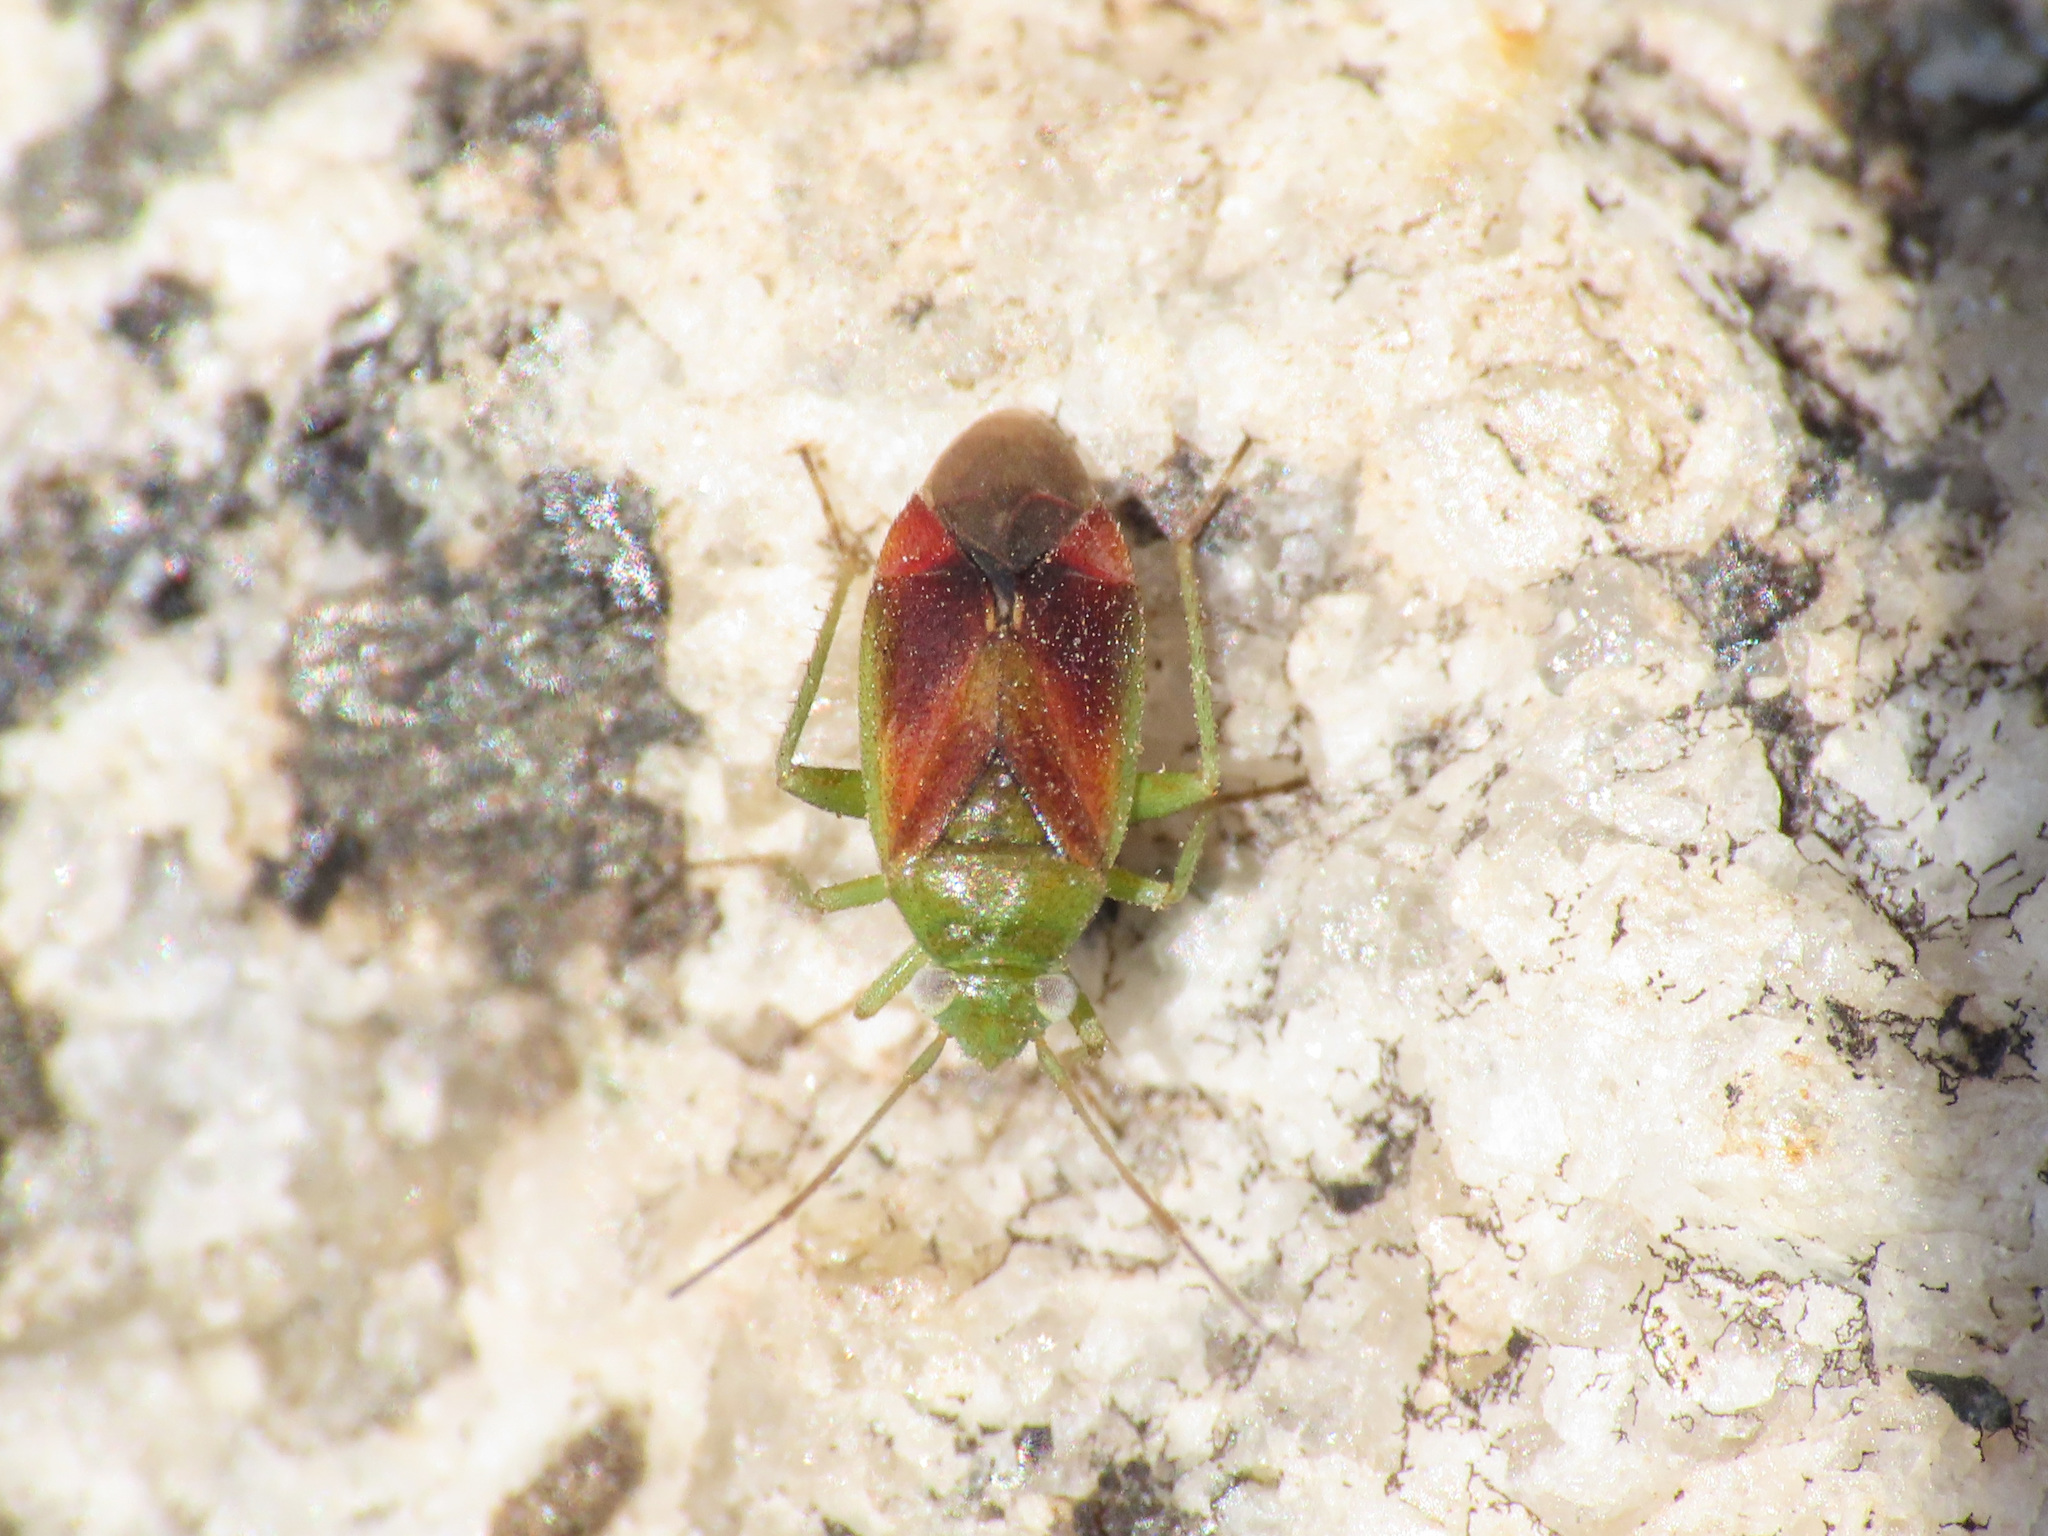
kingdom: Animalia
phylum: Arthropoda
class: Insecta
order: Hemiptera
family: Miridae
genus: Dichrooscytus
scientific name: Dichrooscytus valesianus
